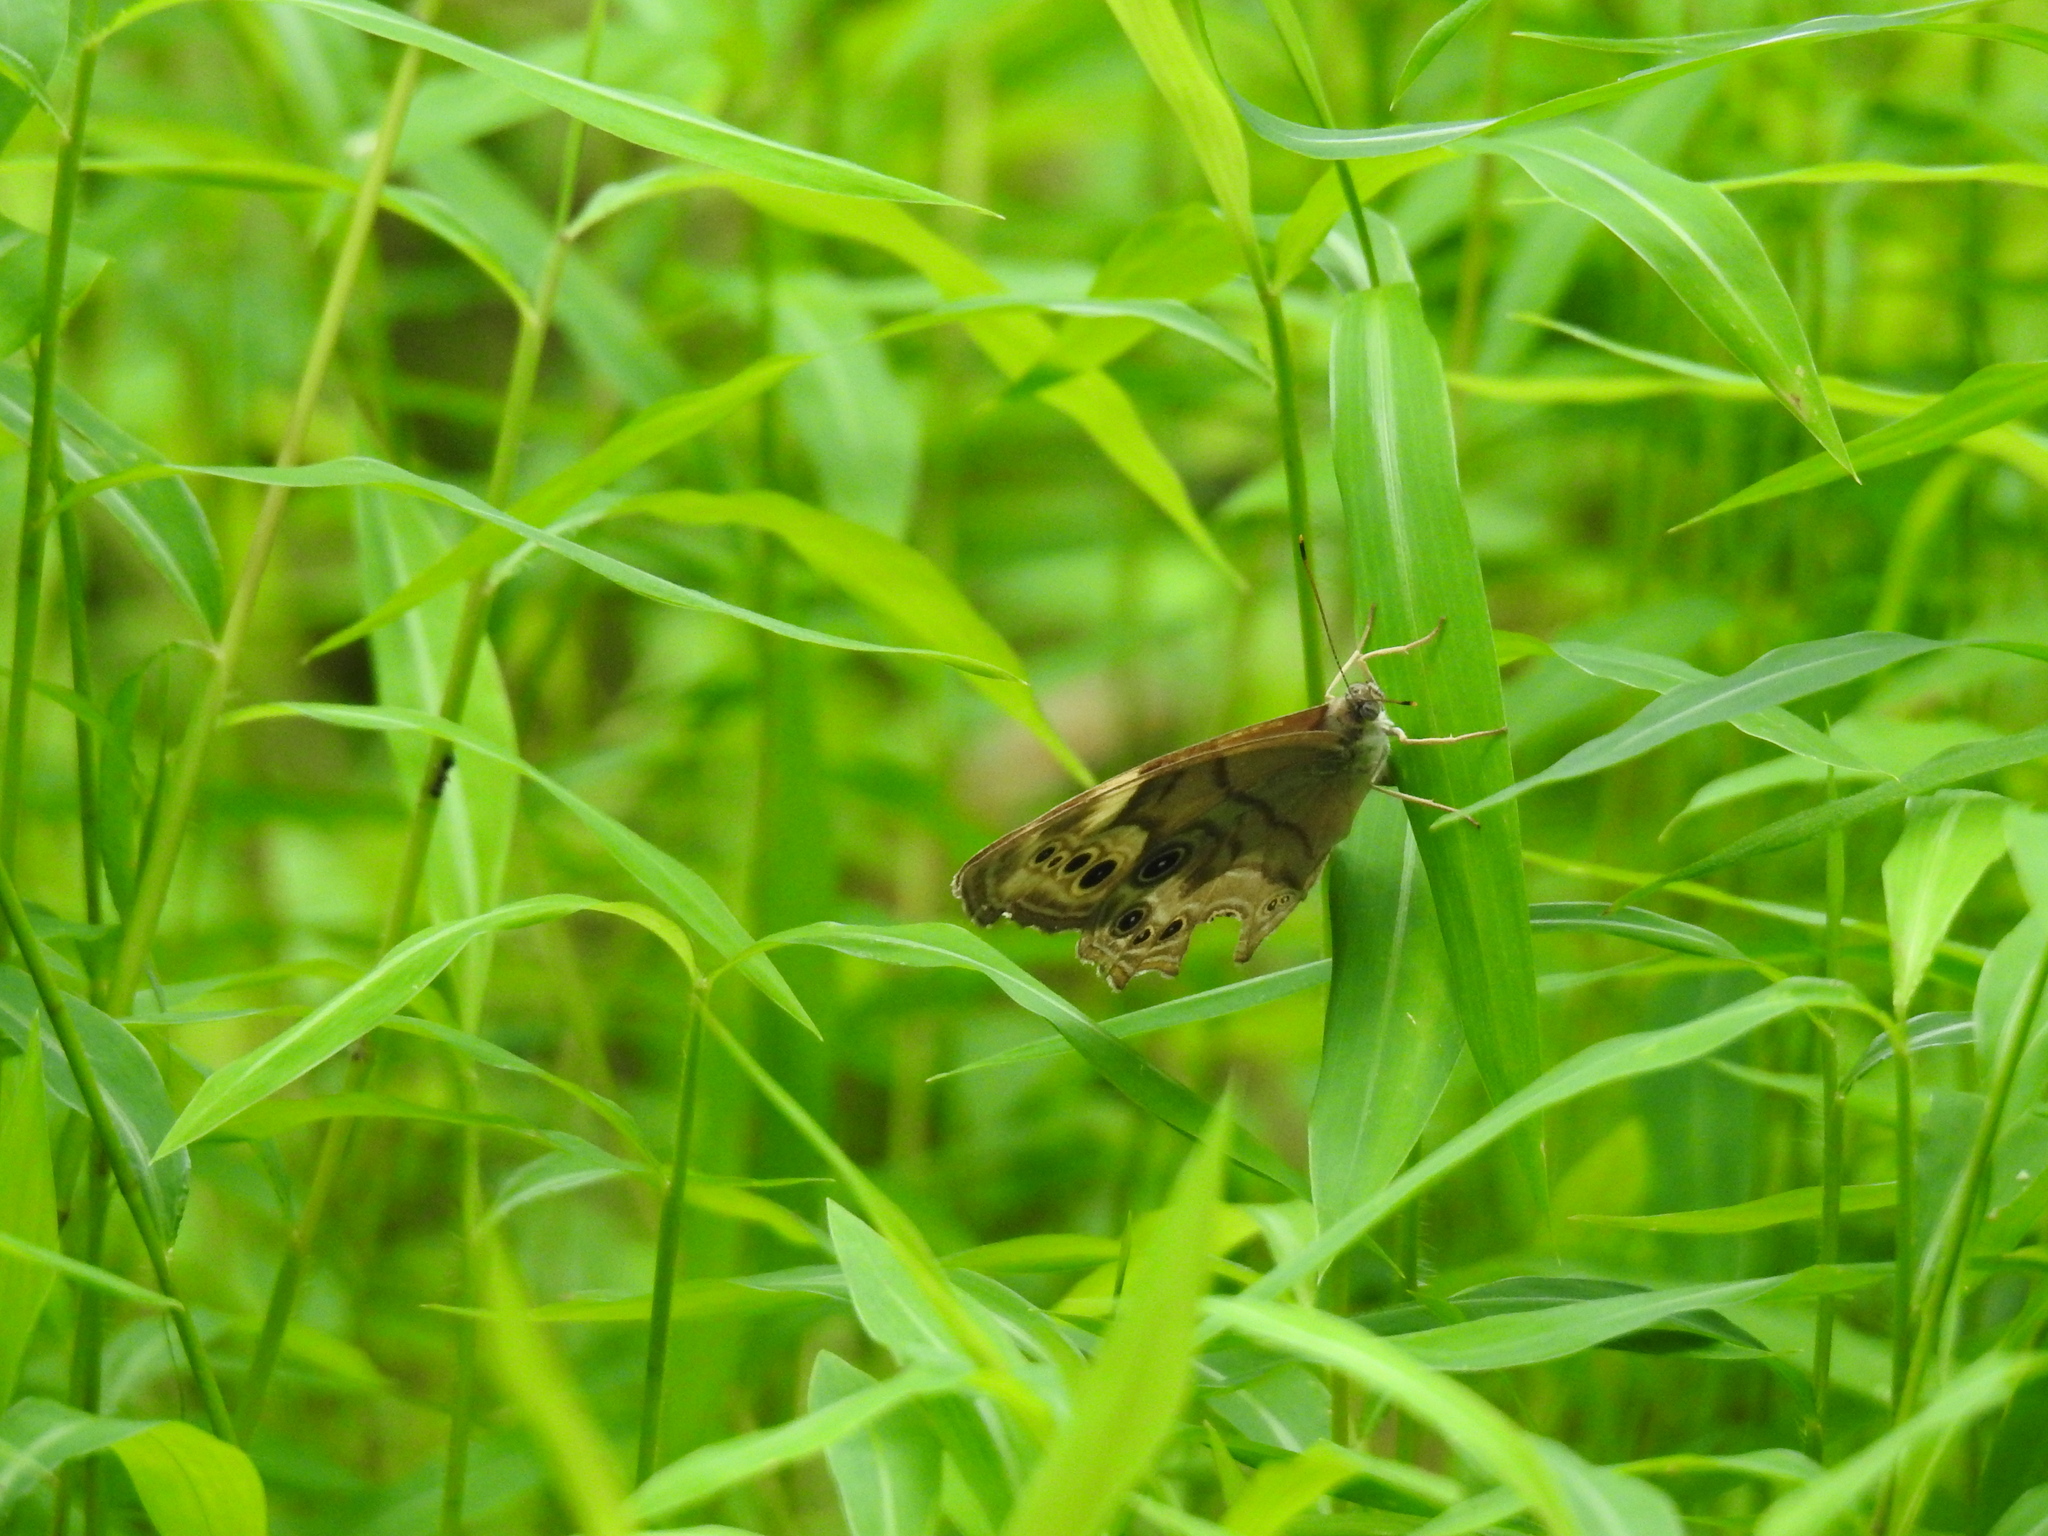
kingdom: Animalia
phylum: Arthropoda
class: Insecta
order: Lepidoptera
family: Nymphalidae
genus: Lethe
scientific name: Lethe anthedon
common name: Northern pearly-eye
